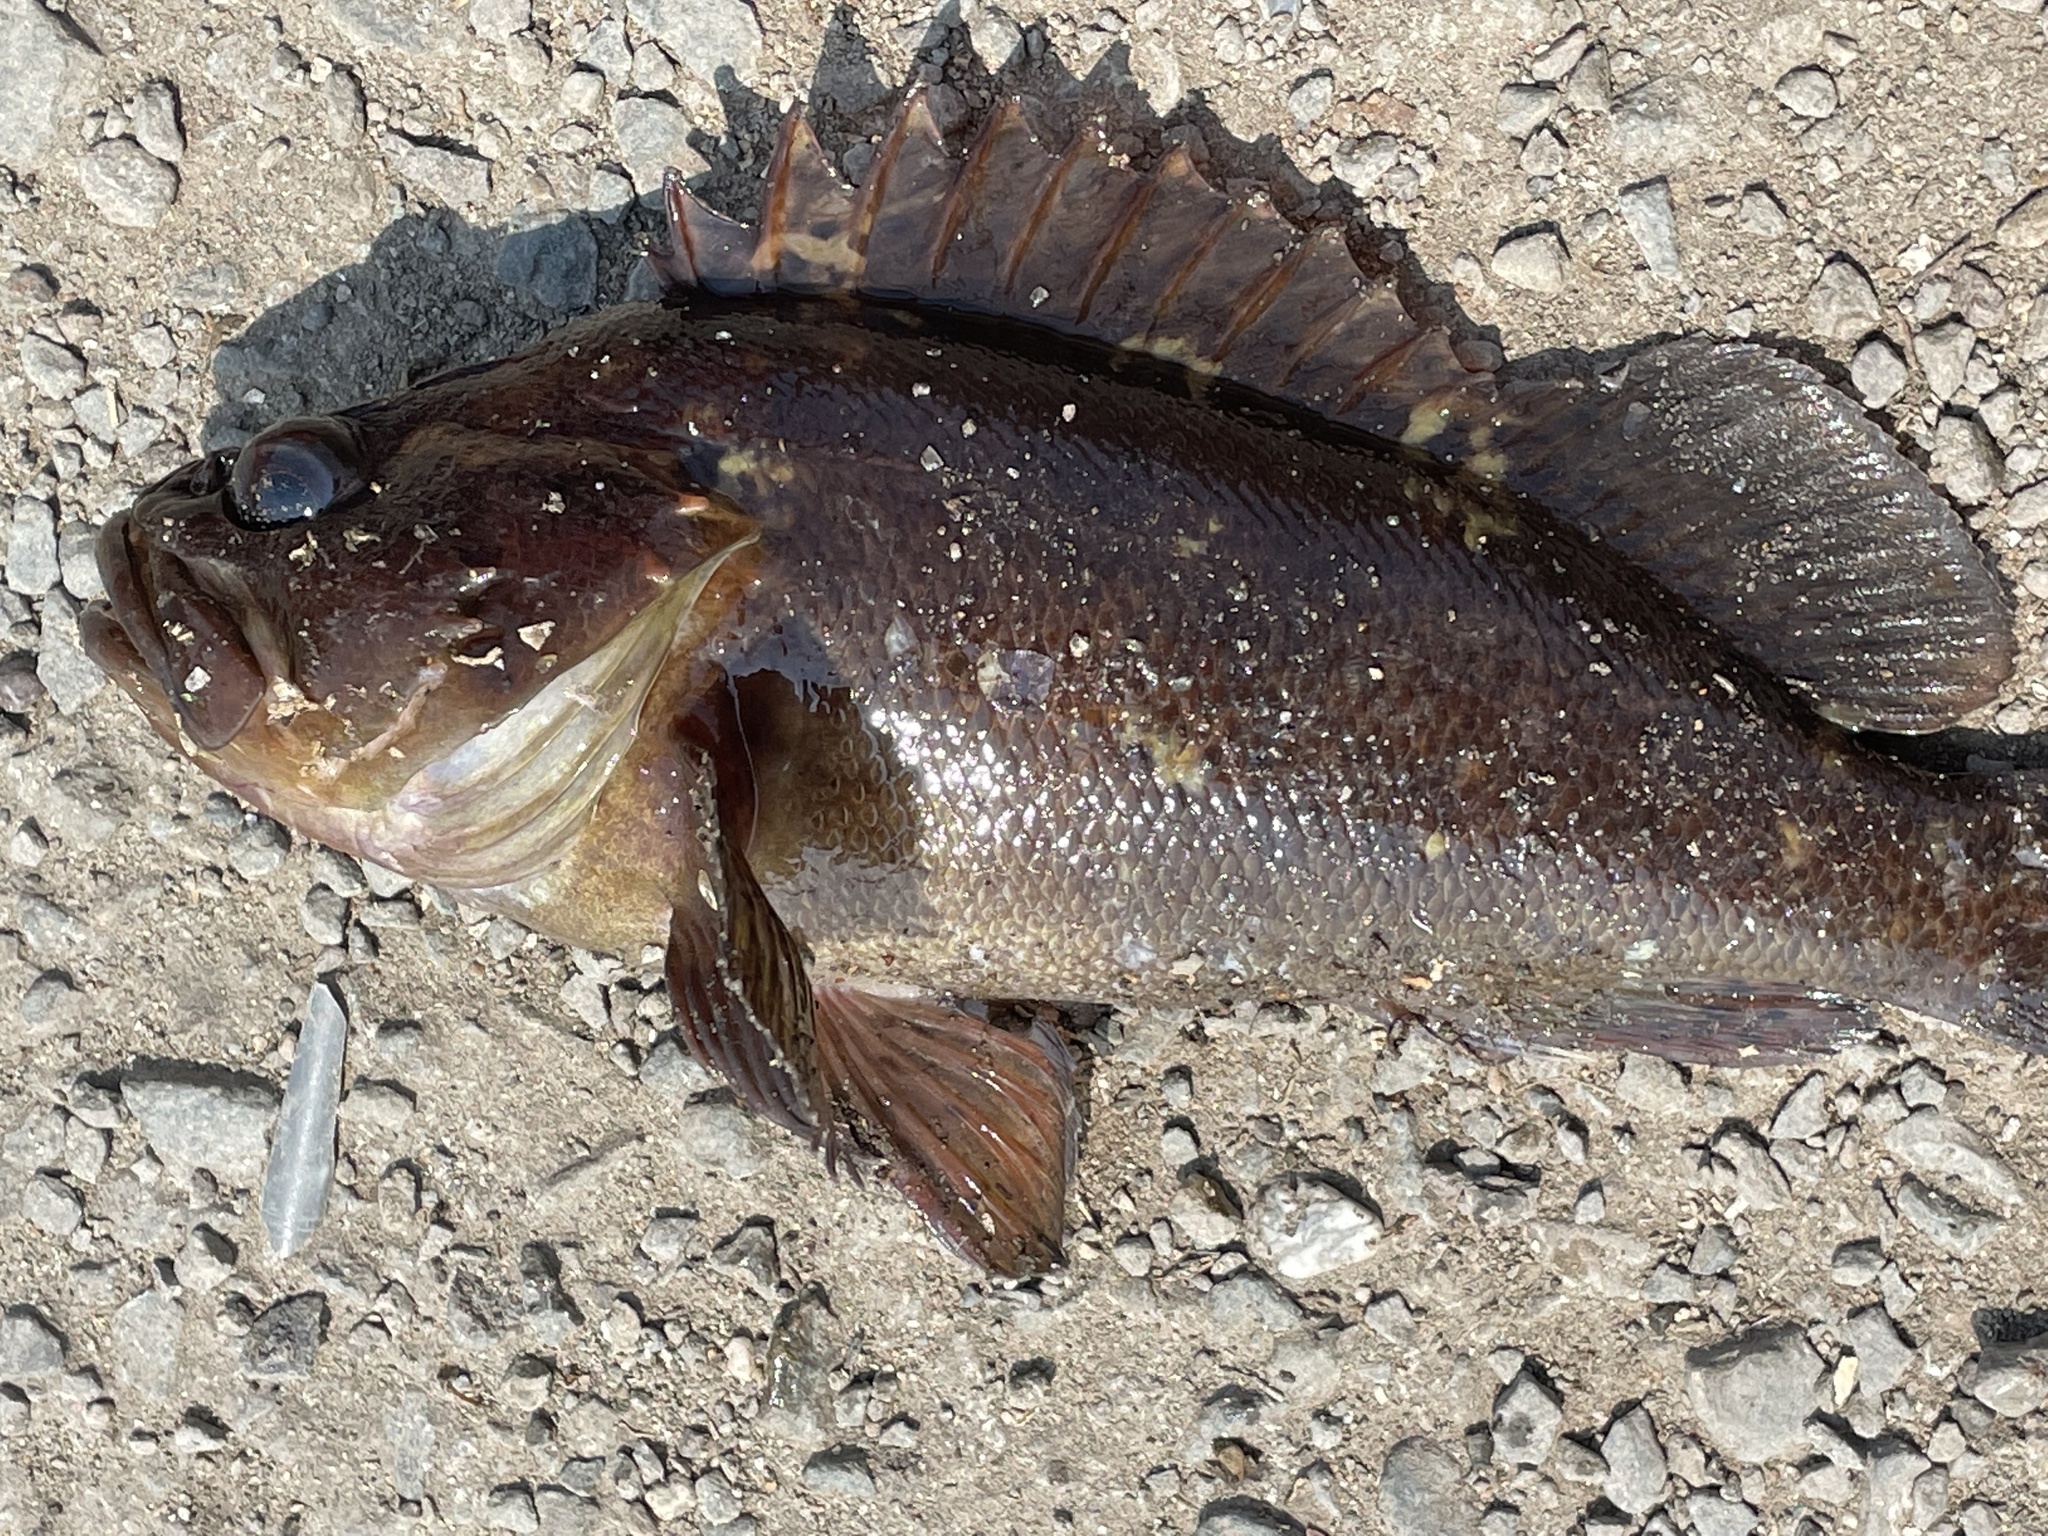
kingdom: Animalia
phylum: Chordata
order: Scorpaeniformes
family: Sebastidae
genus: Sebastes
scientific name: Sebastes rastrelliger
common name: Grass rockfish
